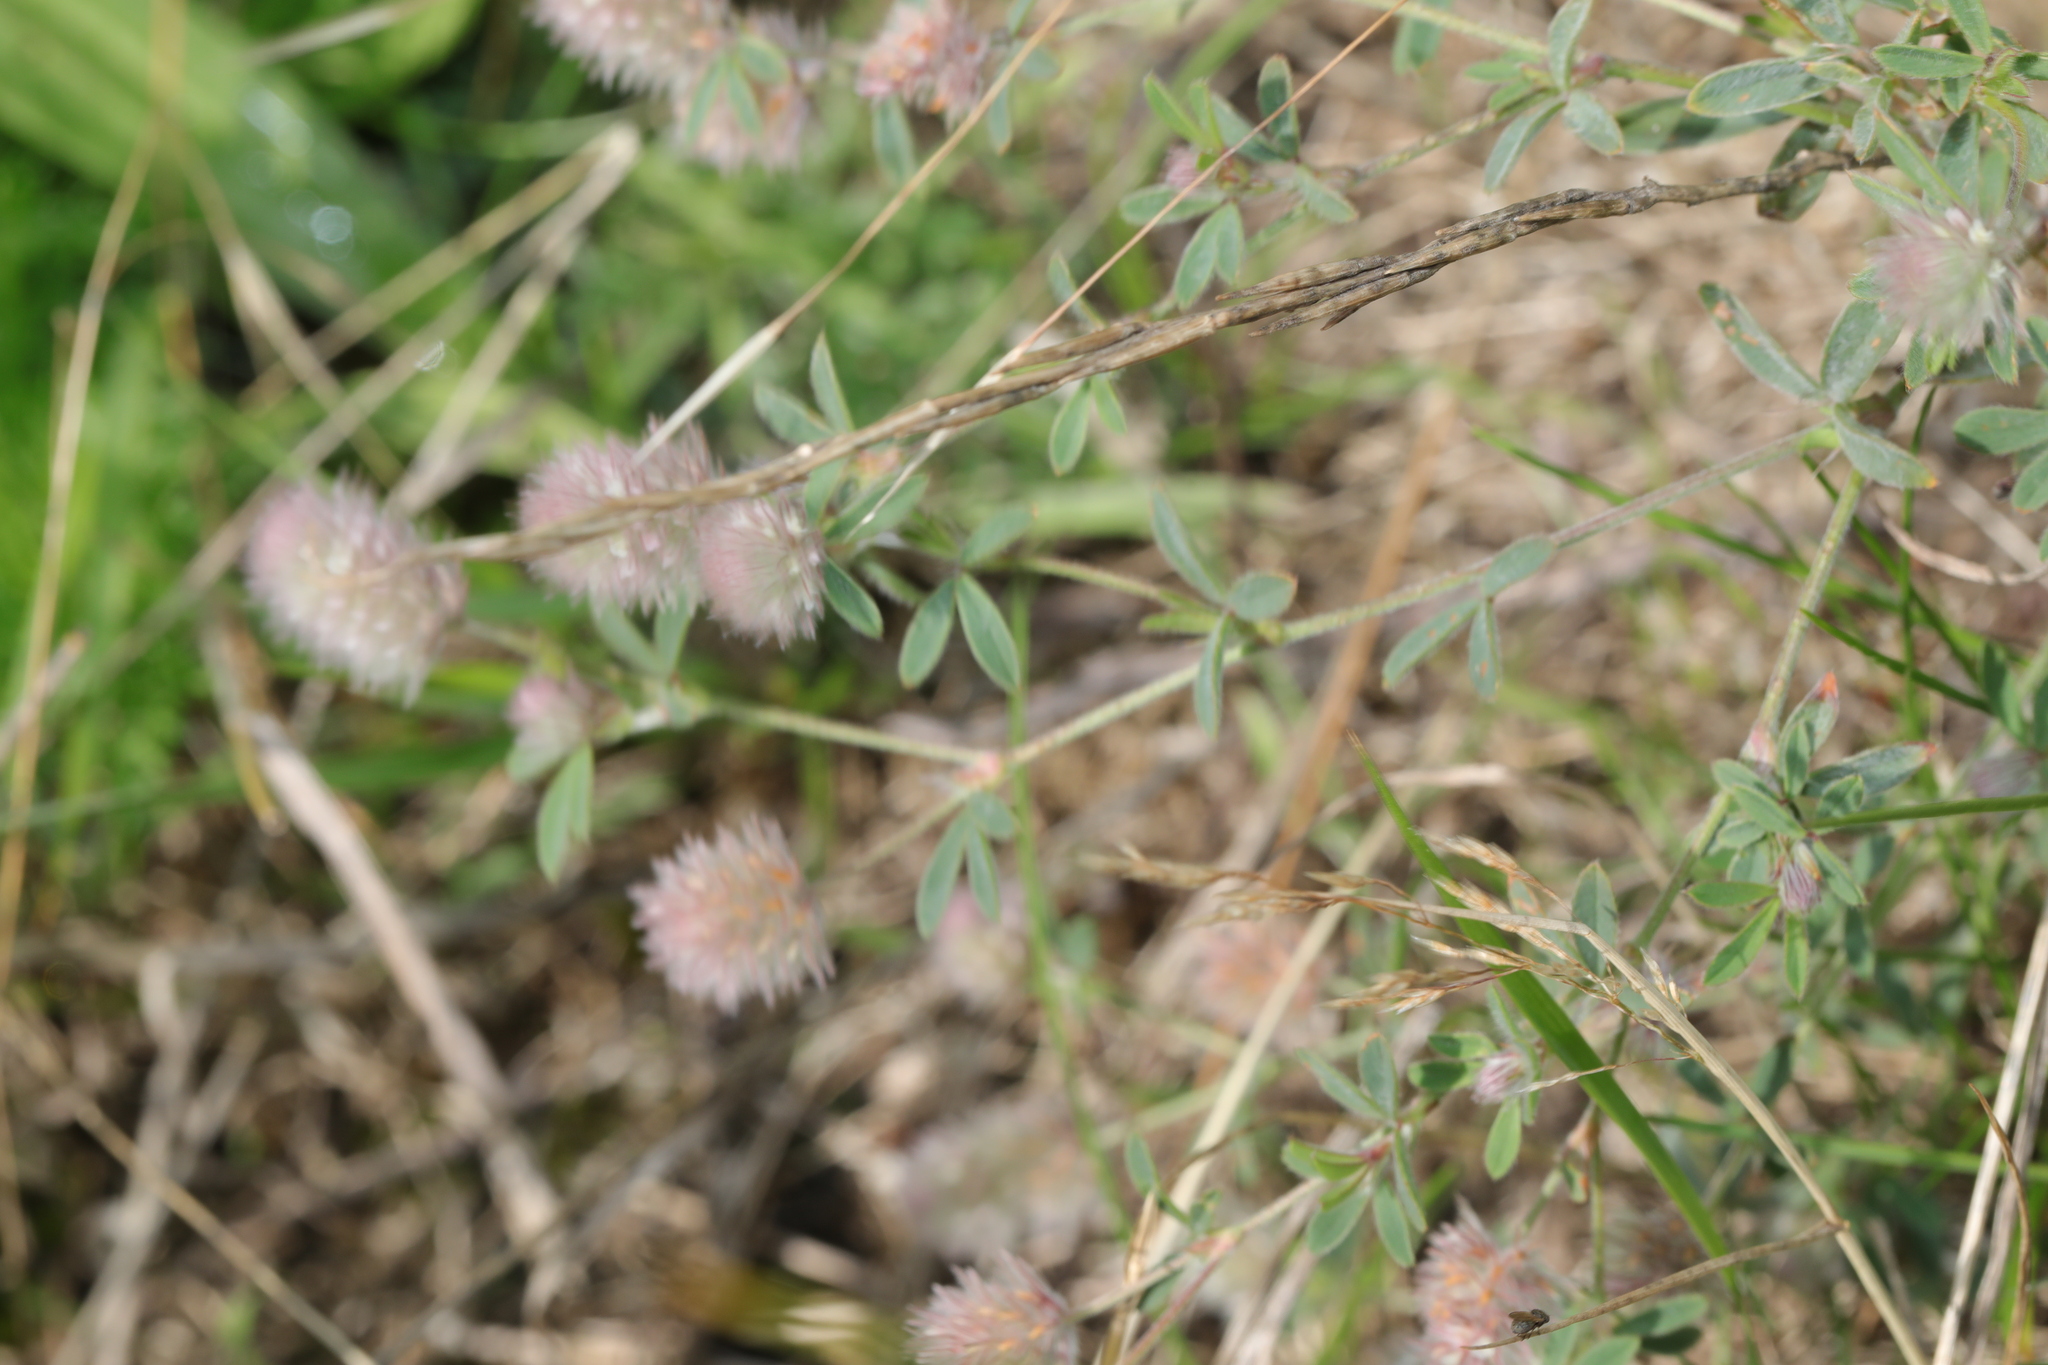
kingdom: Plantae
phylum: Tracheophyta
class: Magnoliopsida
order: Fabales
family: Fabaceae
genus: Trifolium
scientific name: Trifolium arvense
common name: Hare's-foot clover
